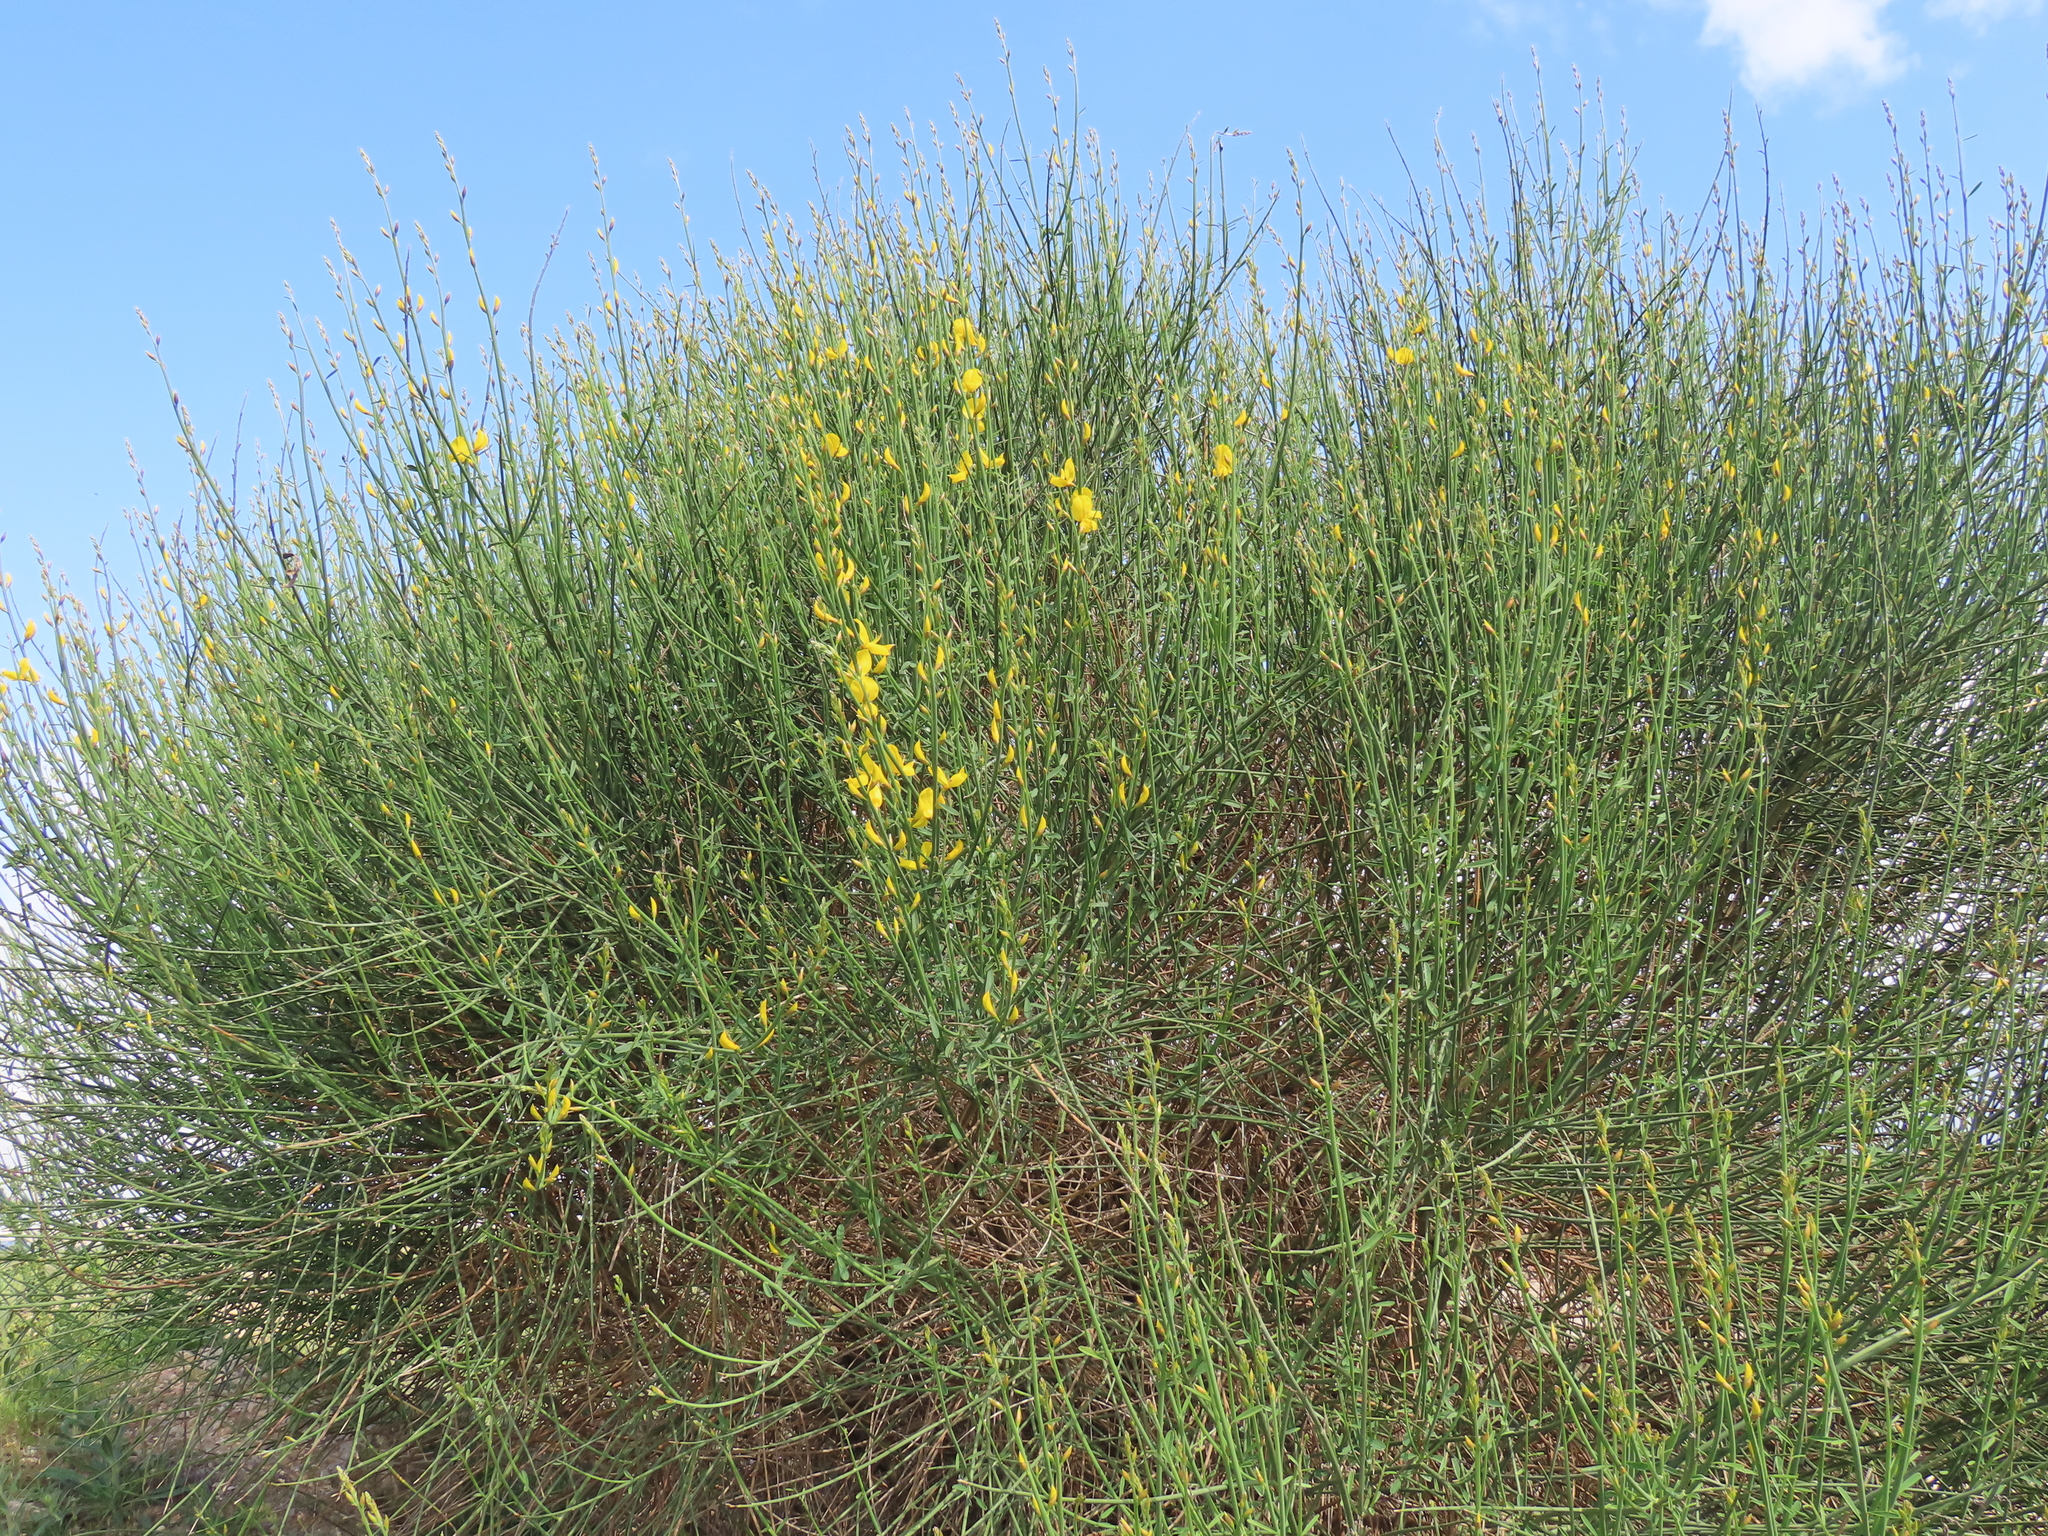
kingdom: Plantae
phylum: Tracheophyta
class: Magnoliopsida
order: Fabales
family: Fabaceae
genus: Spartium
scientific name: Spartium junceum
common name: Spanish broom
